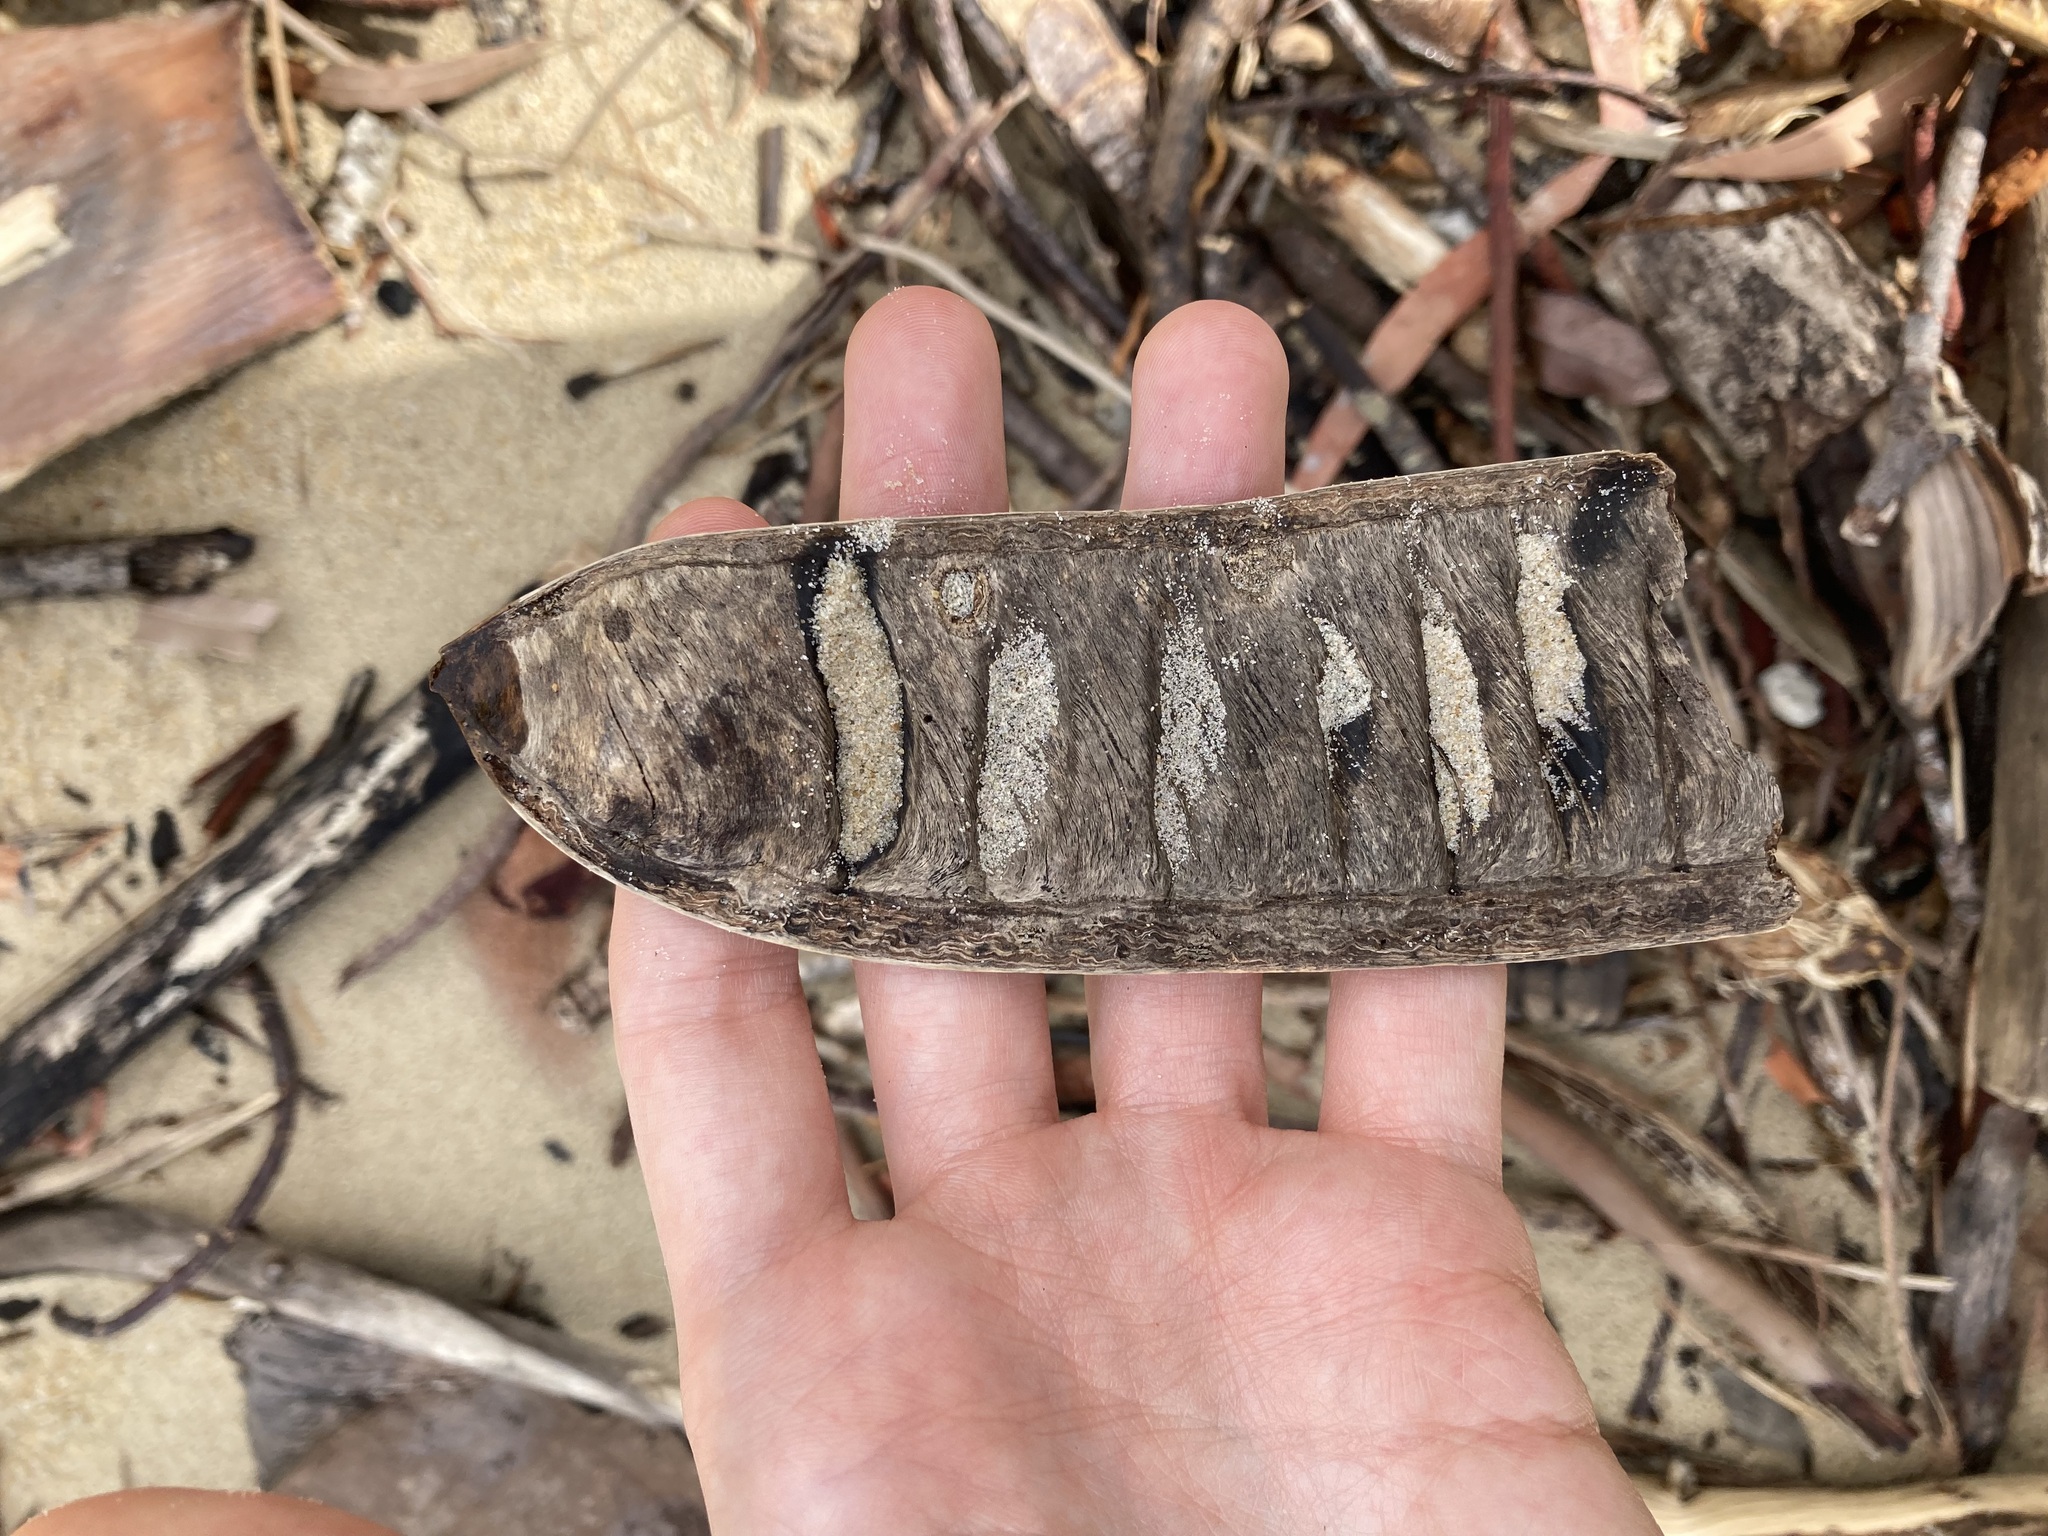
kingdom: Plantae
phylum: Tracheophyta
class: Magnoliopsida
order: Fabales
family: Fabaceae
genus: Delonix
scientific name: Delonix regia
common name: Royal poinciana
